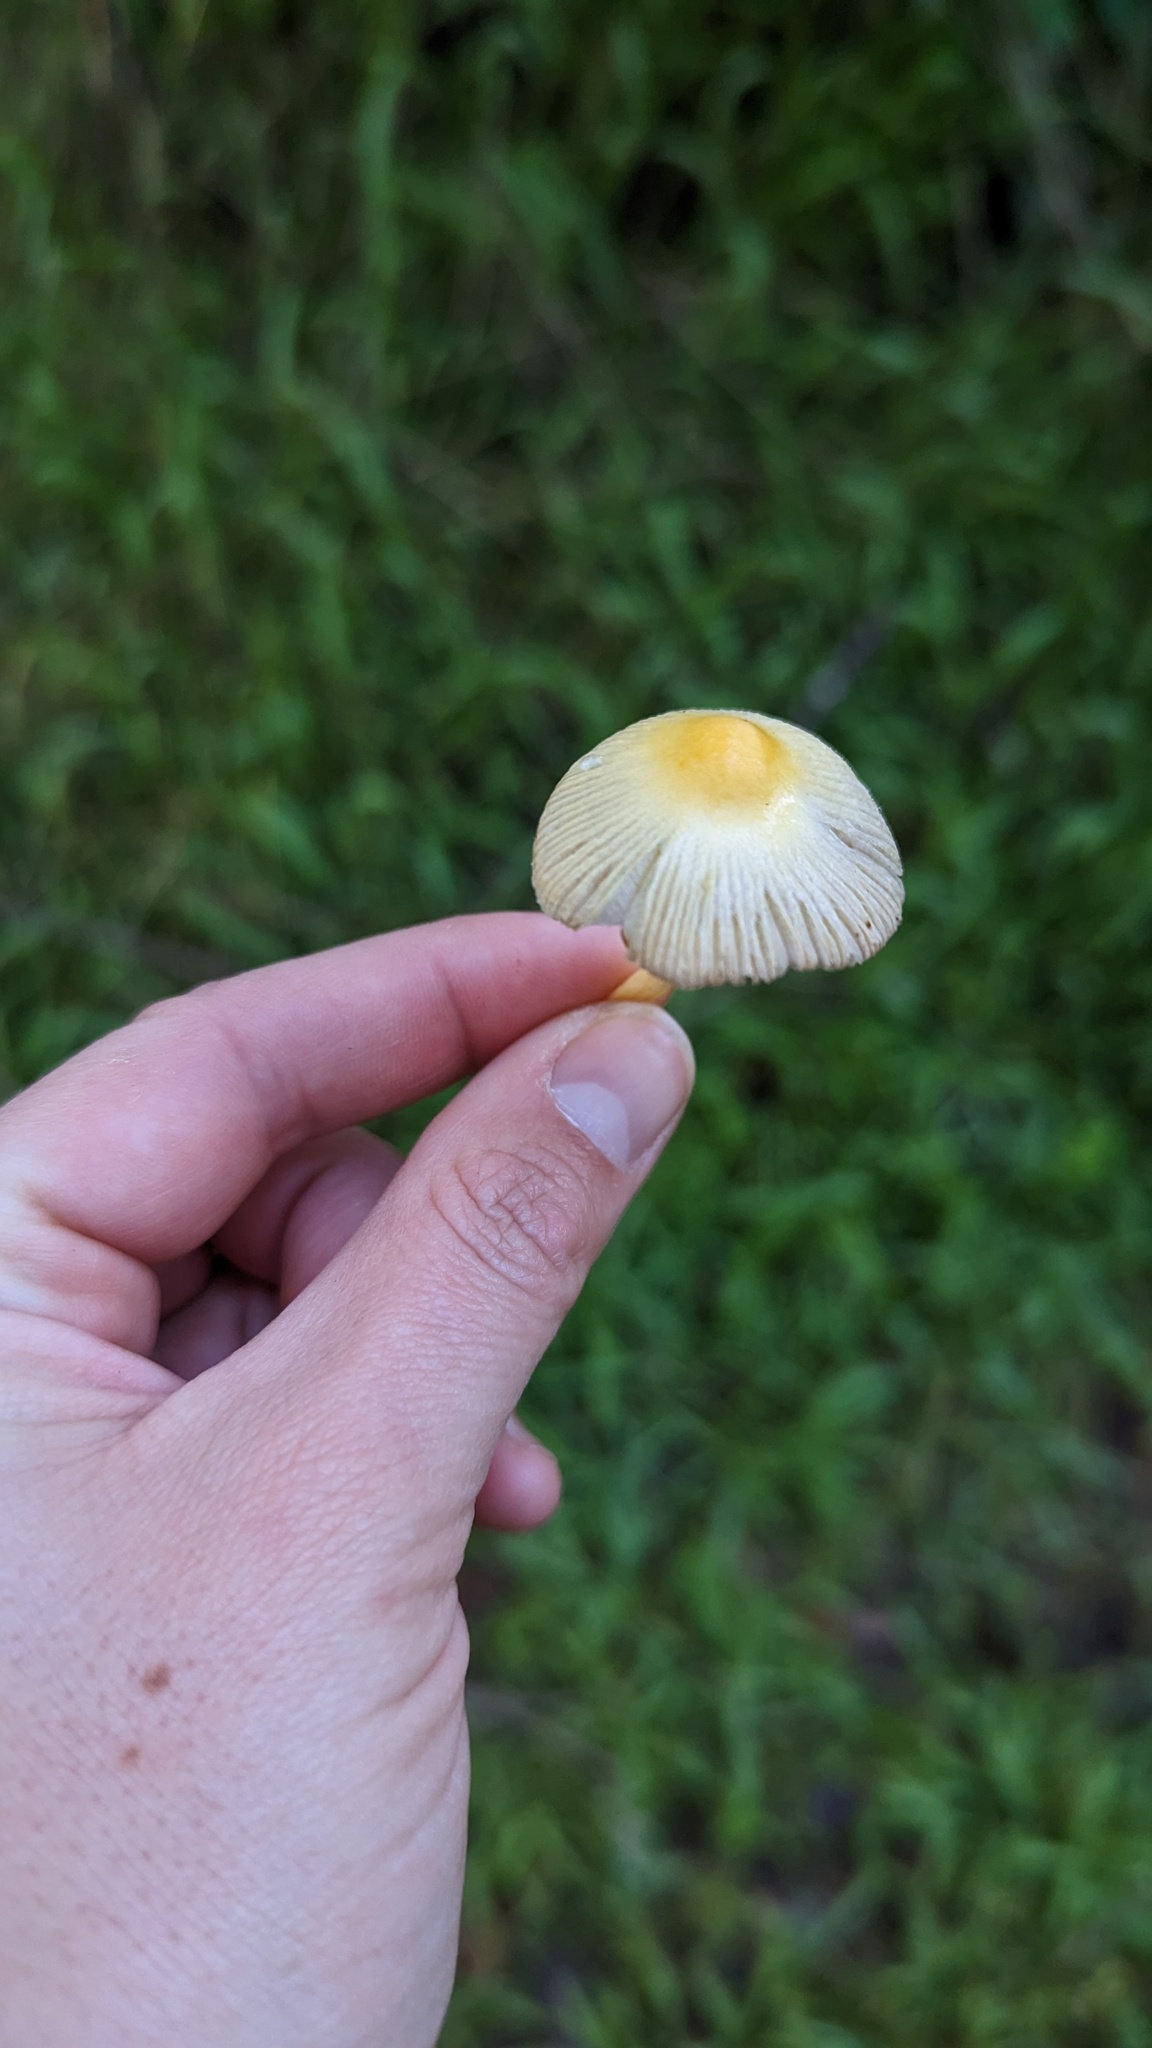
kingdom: Fungi
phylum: Basidiomycota
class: Agaricomycetes
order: Agaricales
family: Bolbitiaceae
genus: Bolbitius
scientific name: Bolbitius titubans
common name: Yellow fieldcap
